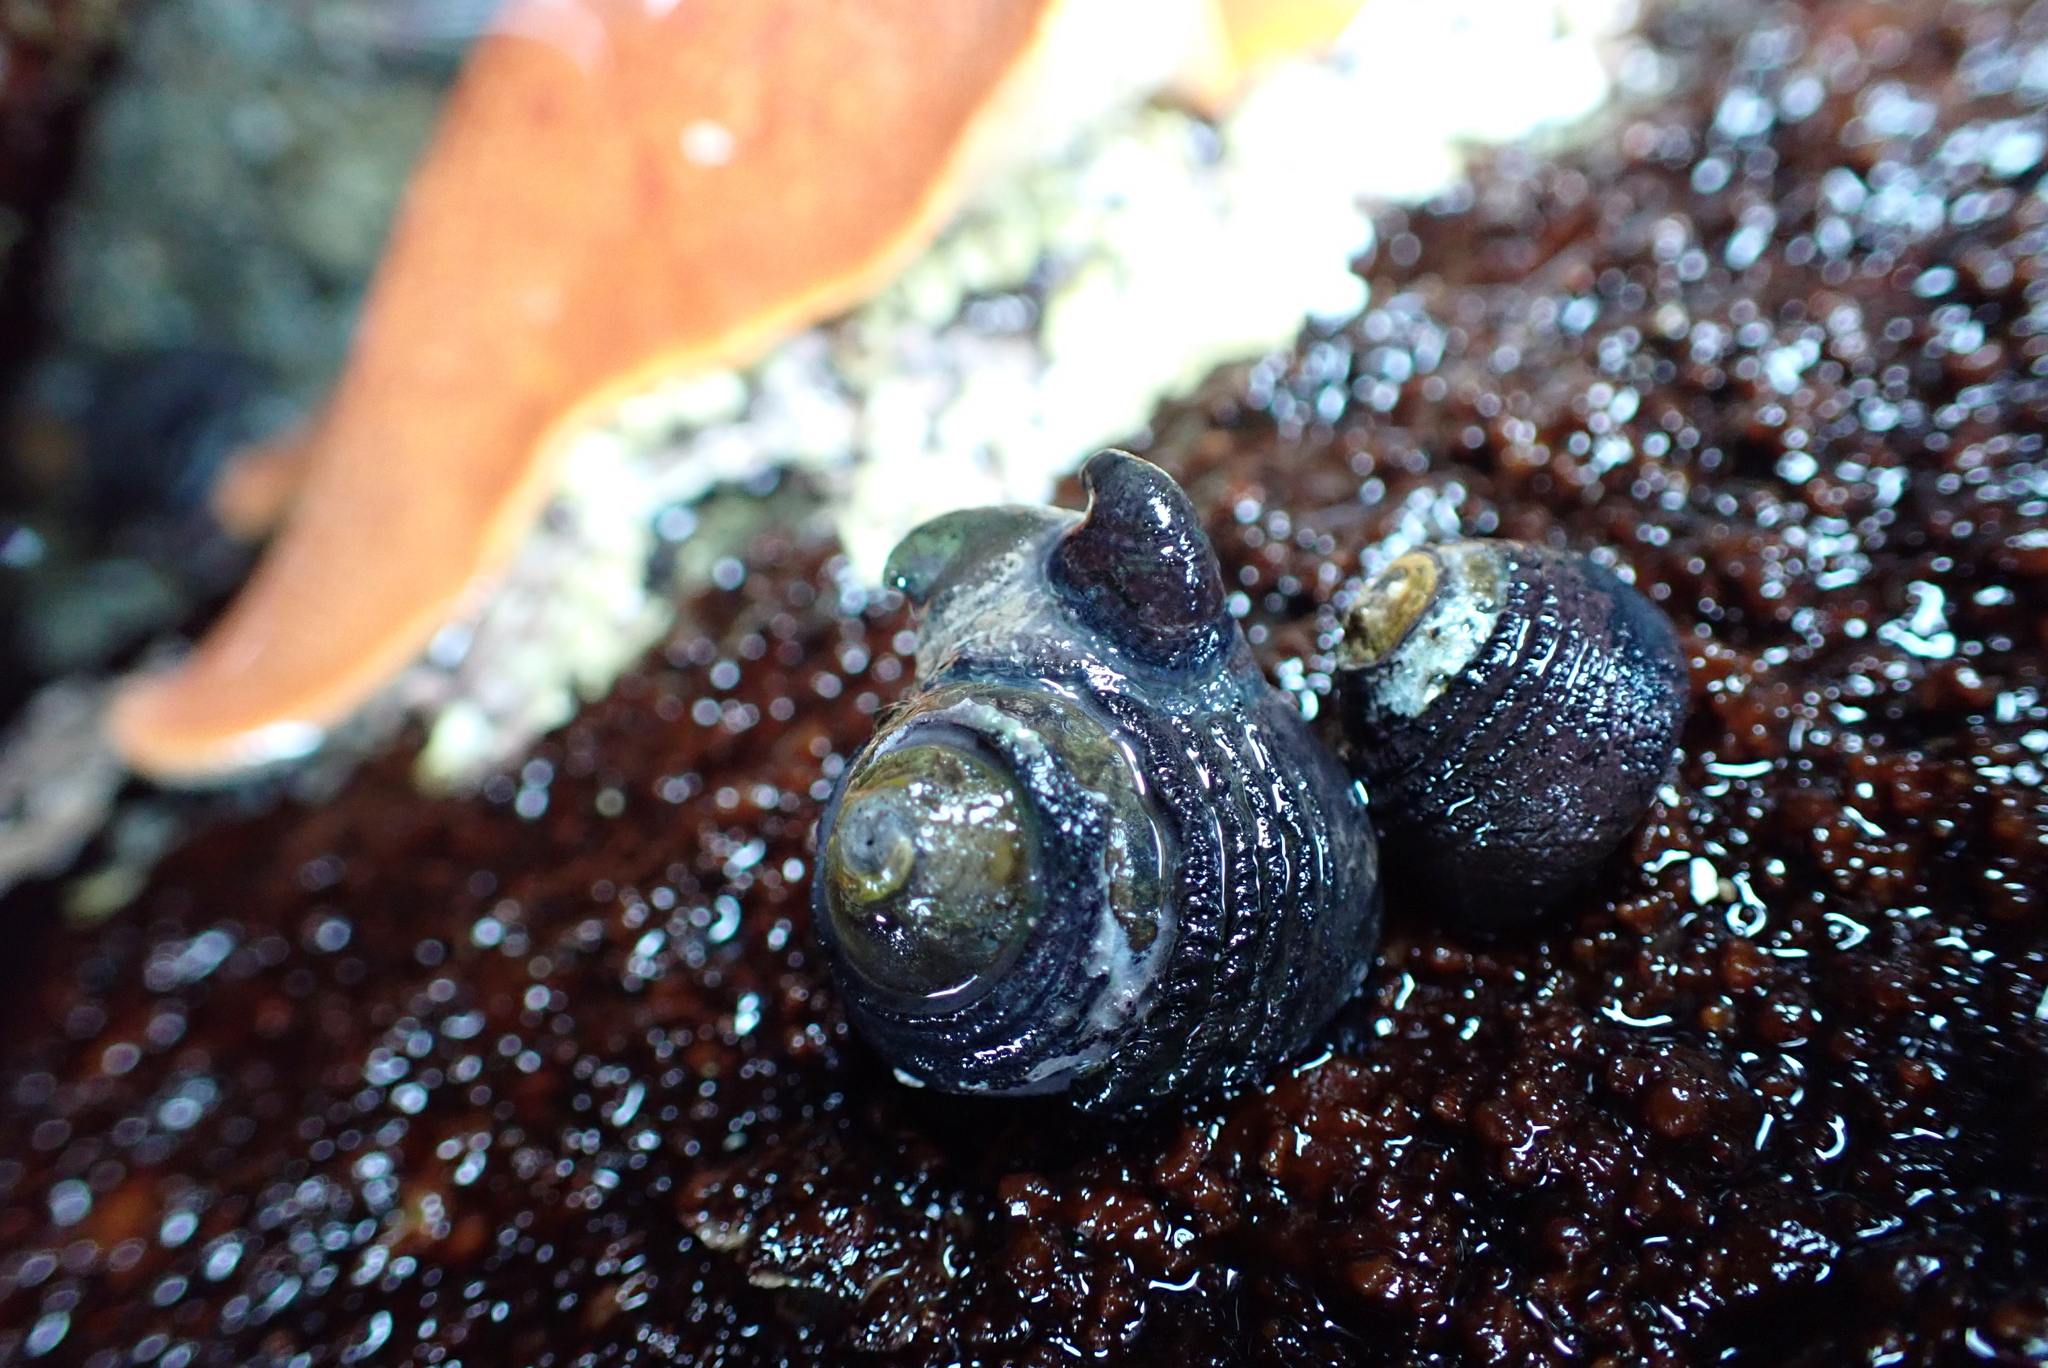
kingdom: Animalia
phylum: Mollusca
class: Gastropoda
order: Trochida
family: Tegulidae
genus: Tegula
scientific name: Tegula funebralis
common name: Black tegula
